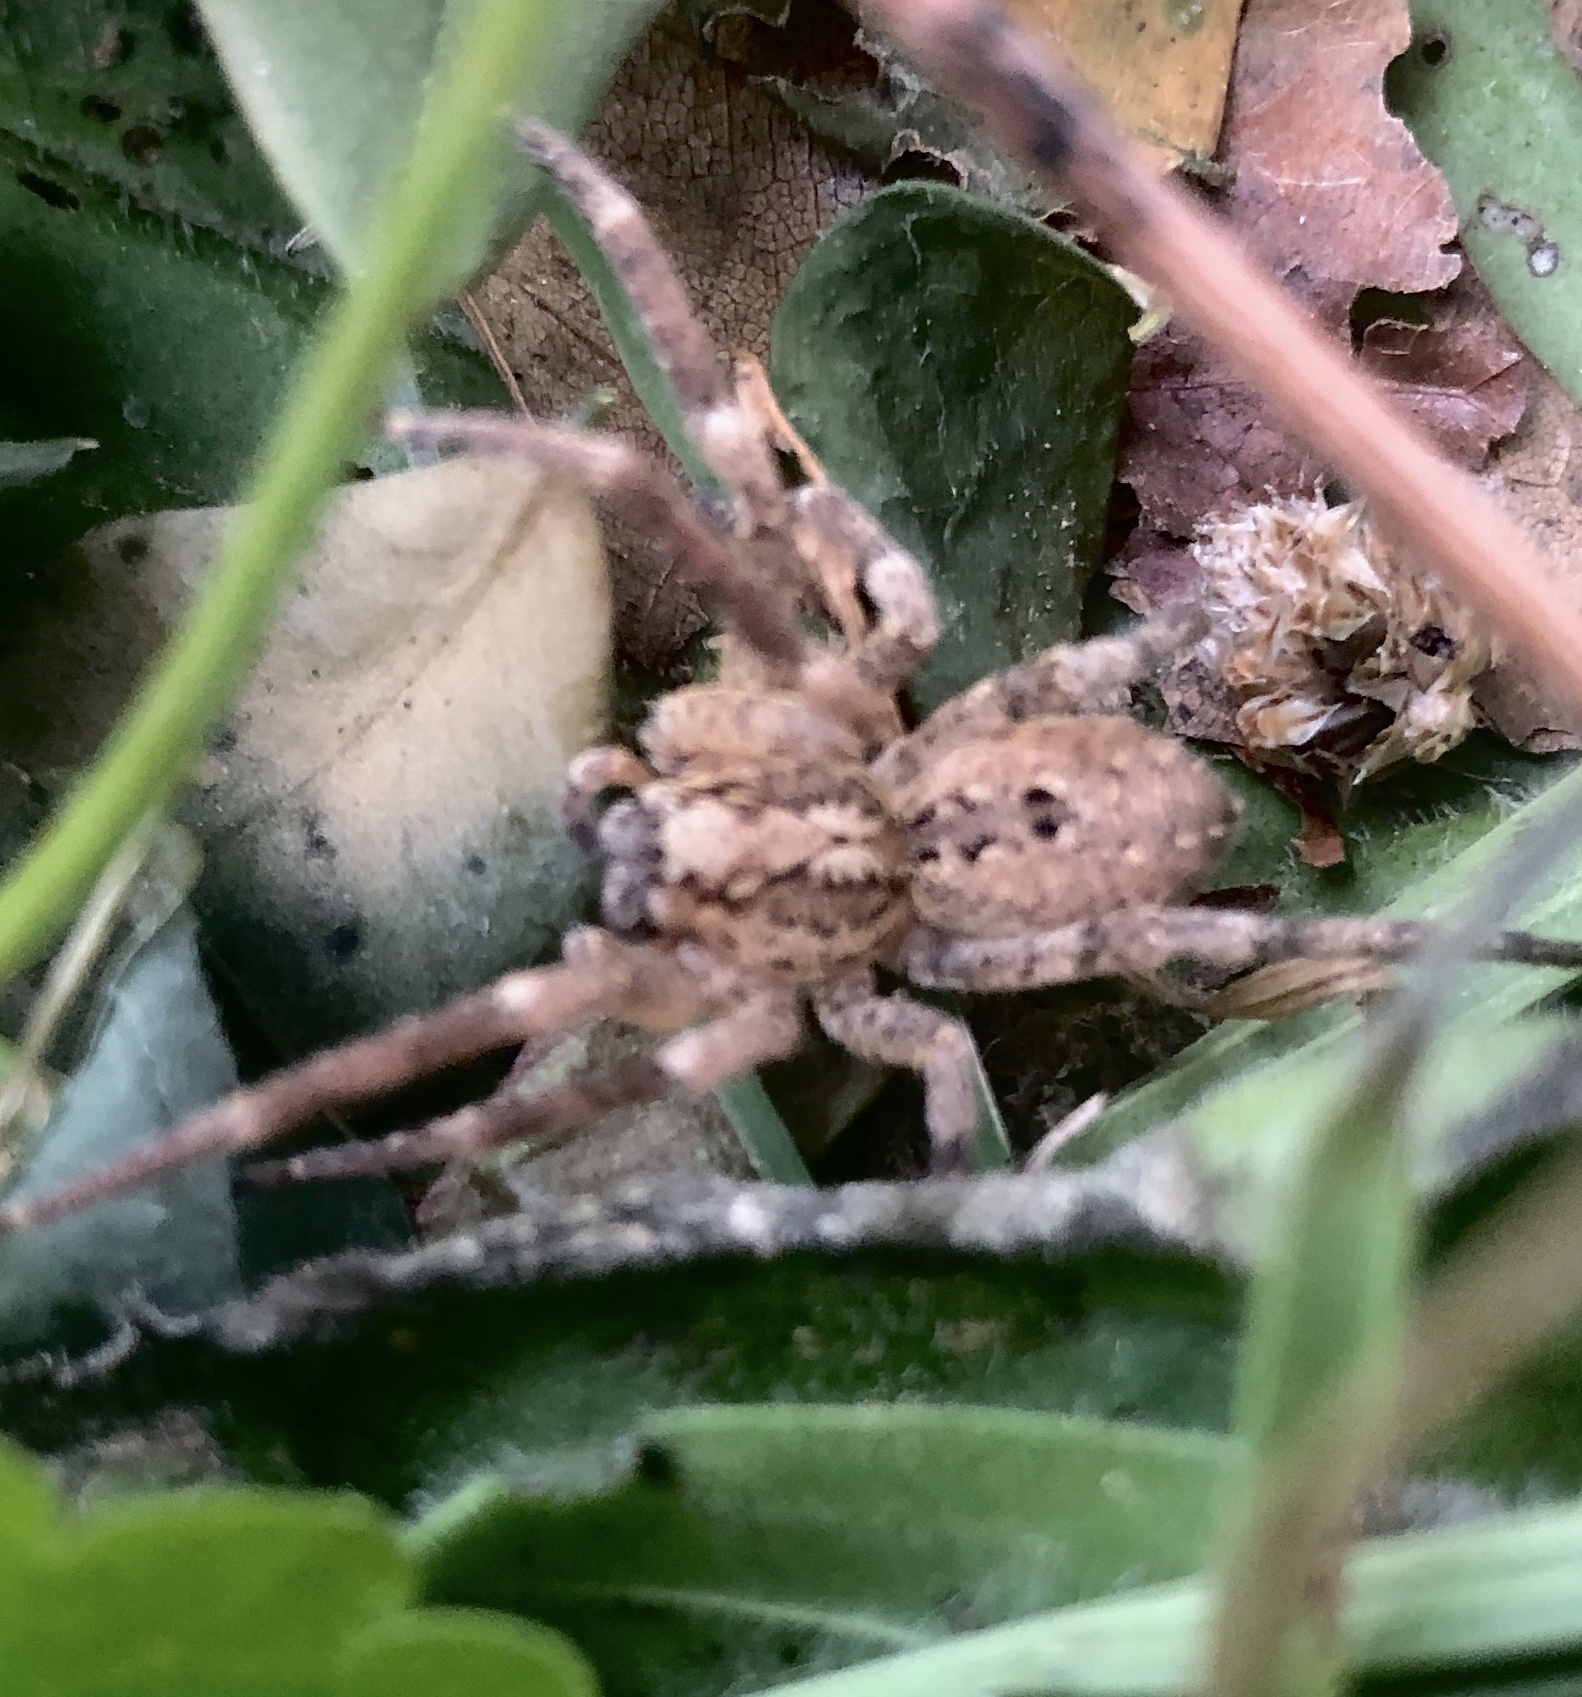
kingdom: Animalia
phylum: Arthropoda
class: Arachnida
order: Araneae
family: Zoropsidae
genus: Zoropsis
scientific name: Zoropsis spinimana
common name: Zoropsid spider
